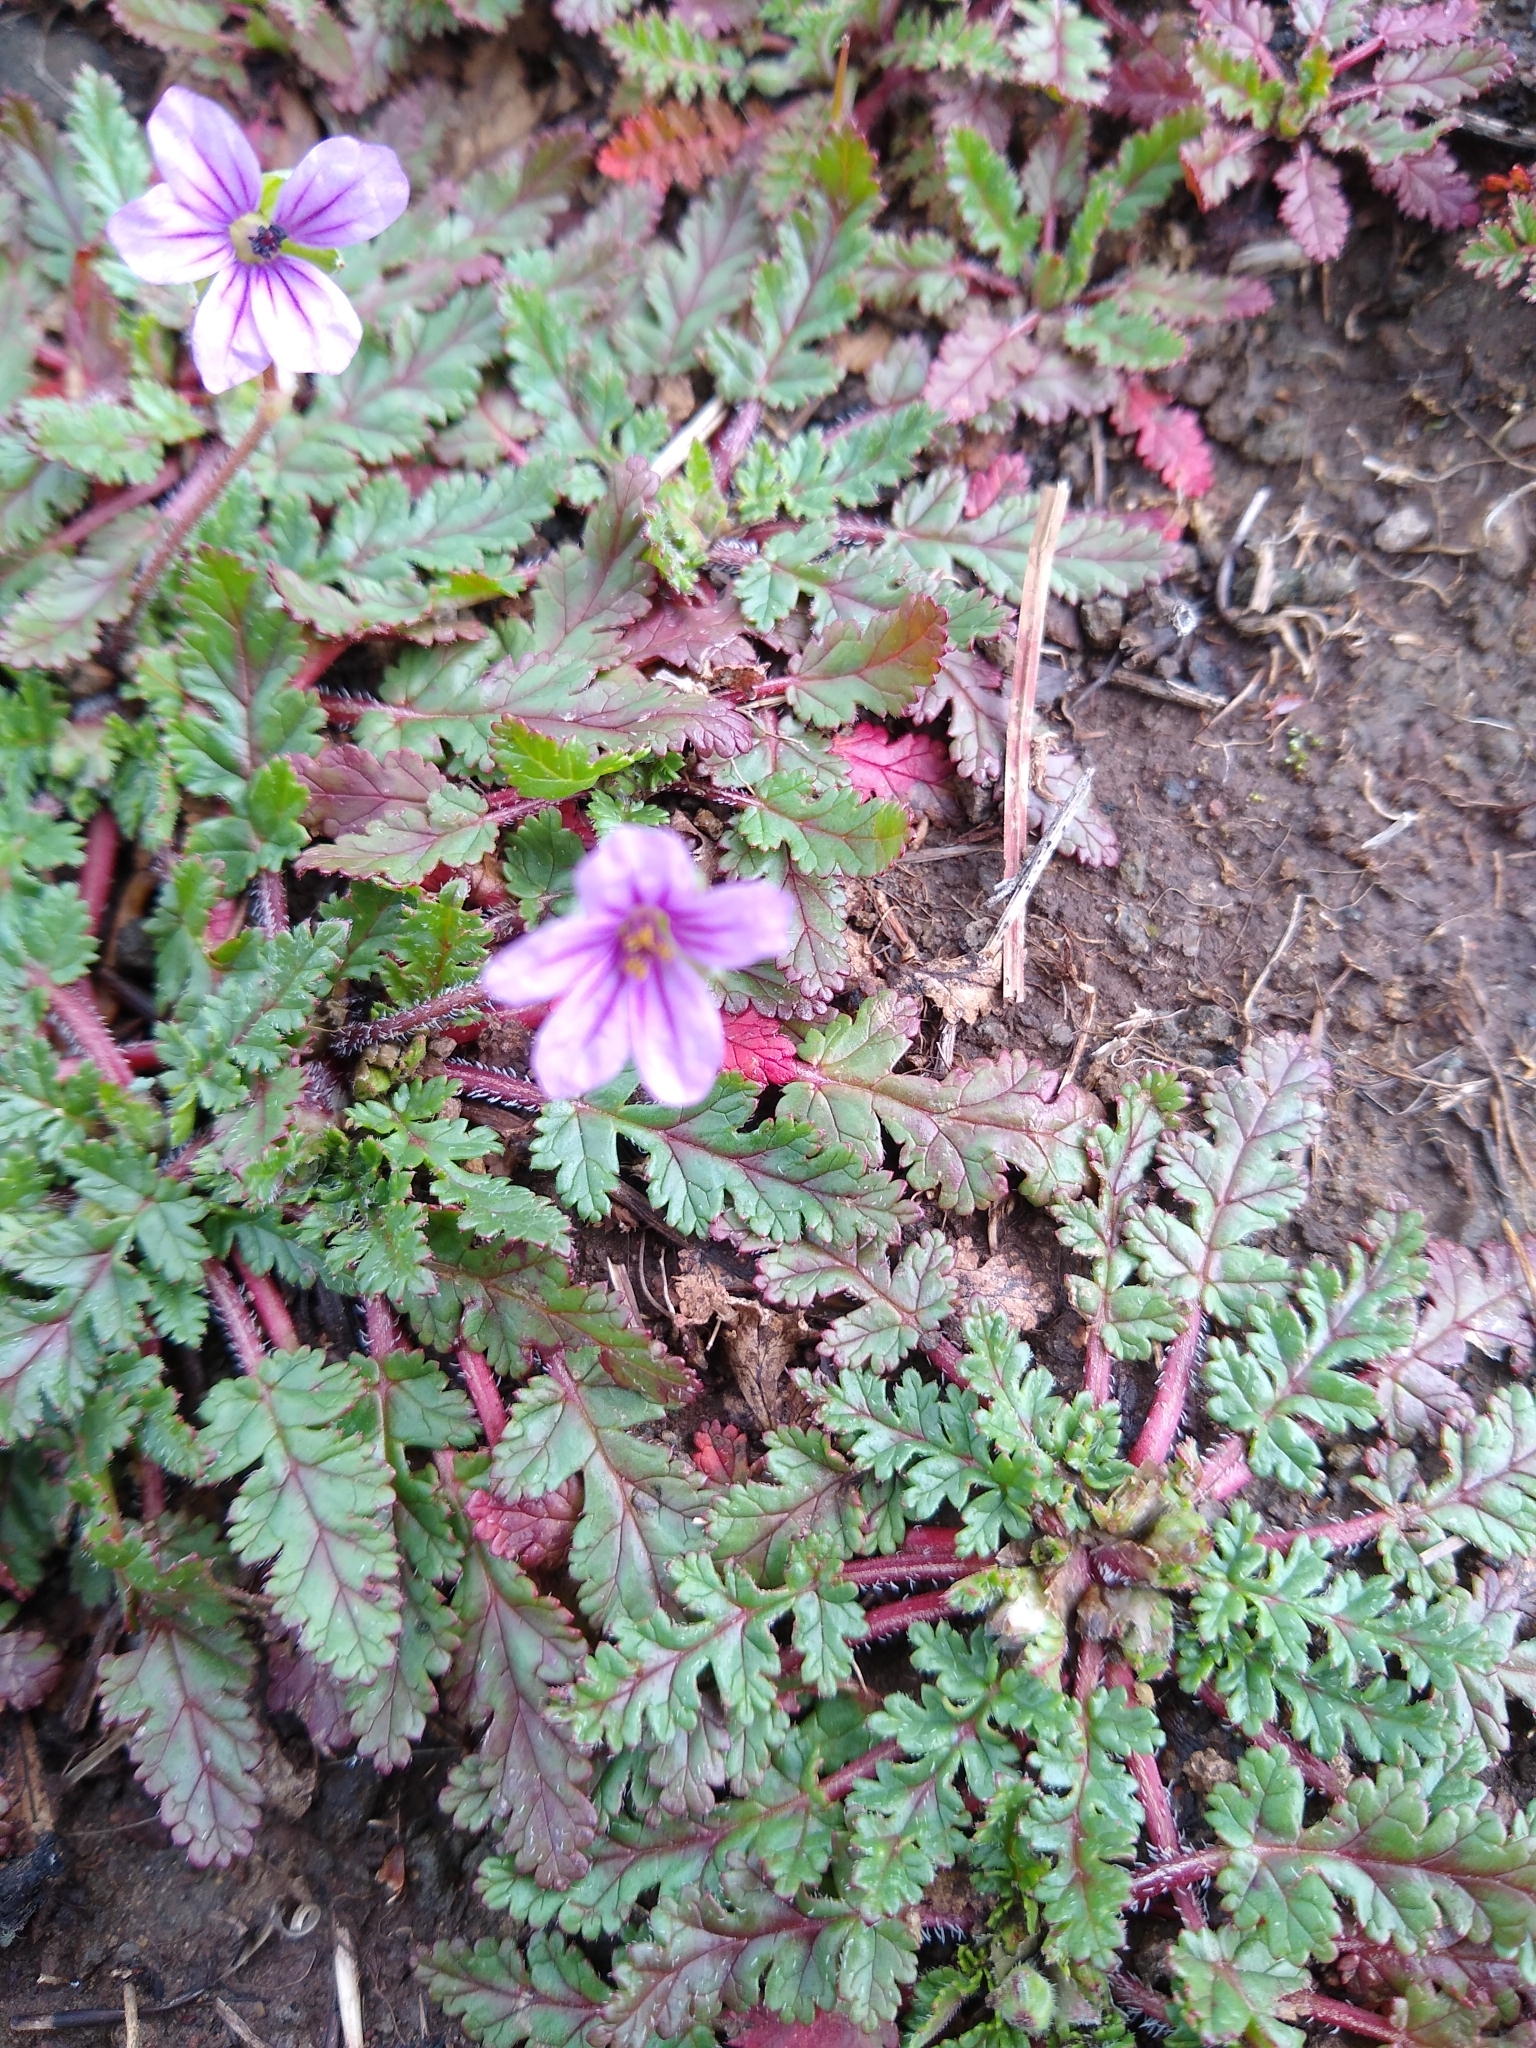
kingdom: Plantae
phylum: Tracheophyta
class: Magnoliopsida
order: Geraniales
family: Geraniaceae
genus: Erodium
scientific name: Erodium botrys
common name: Mediterranean stork's-bill
